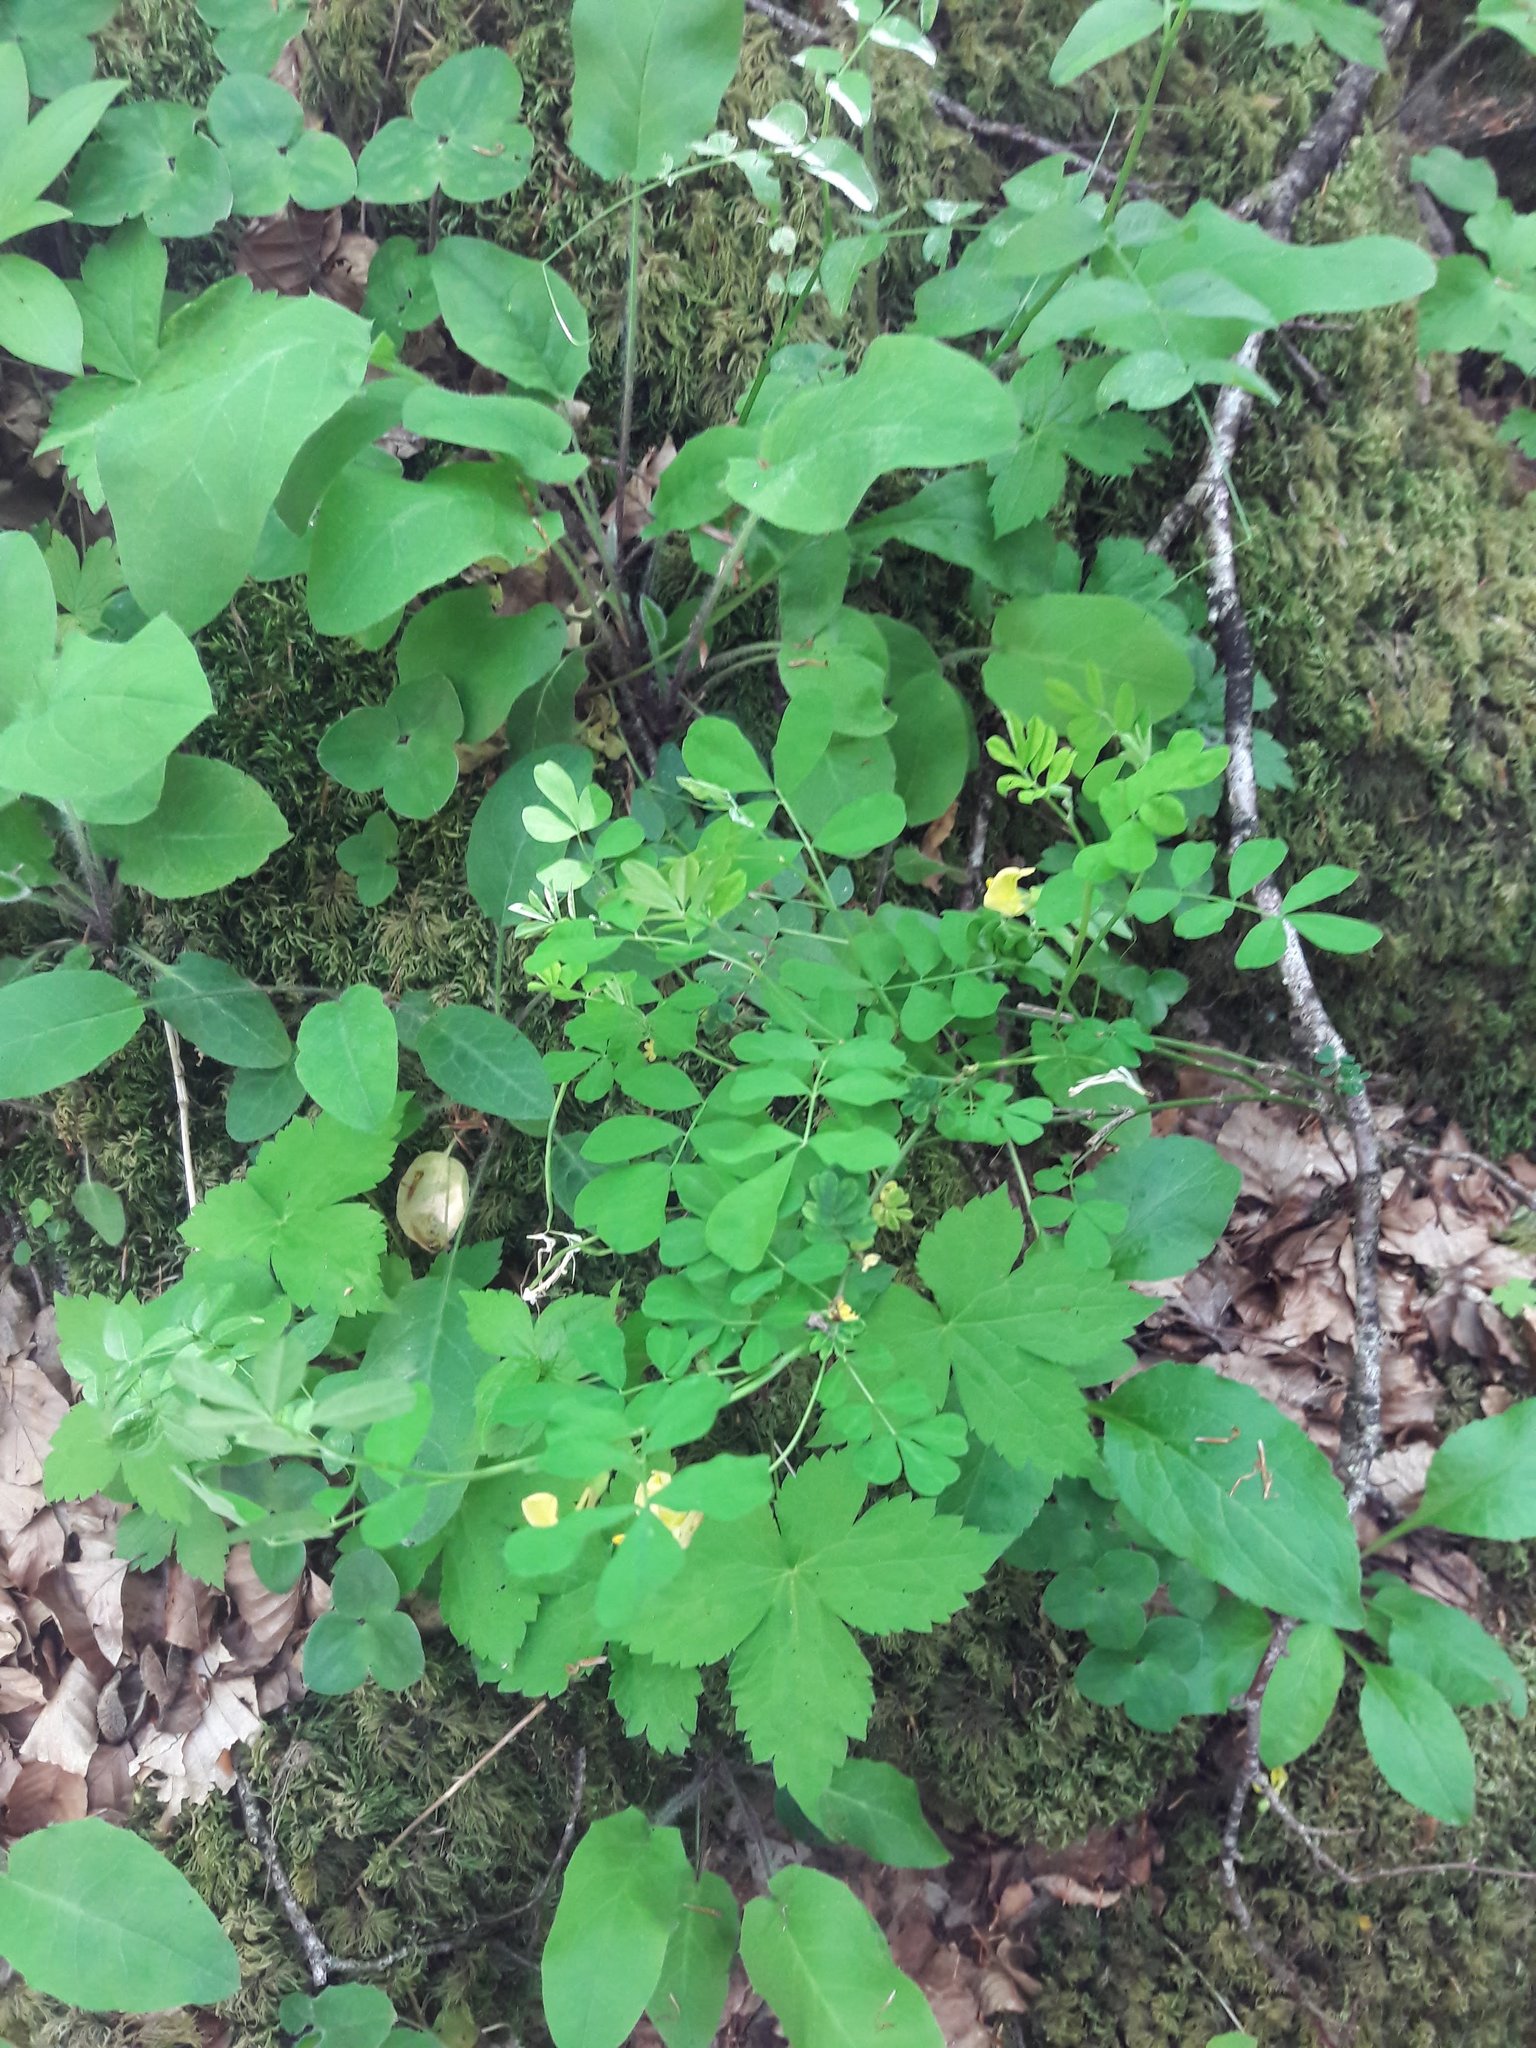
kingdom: Plantae
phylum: Tracheophyta
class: Magnoliopsida
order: Fabales
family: Fabaceae
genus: Hippocrepis
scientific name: Hippocrepis emerus
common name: Scorpion senna
